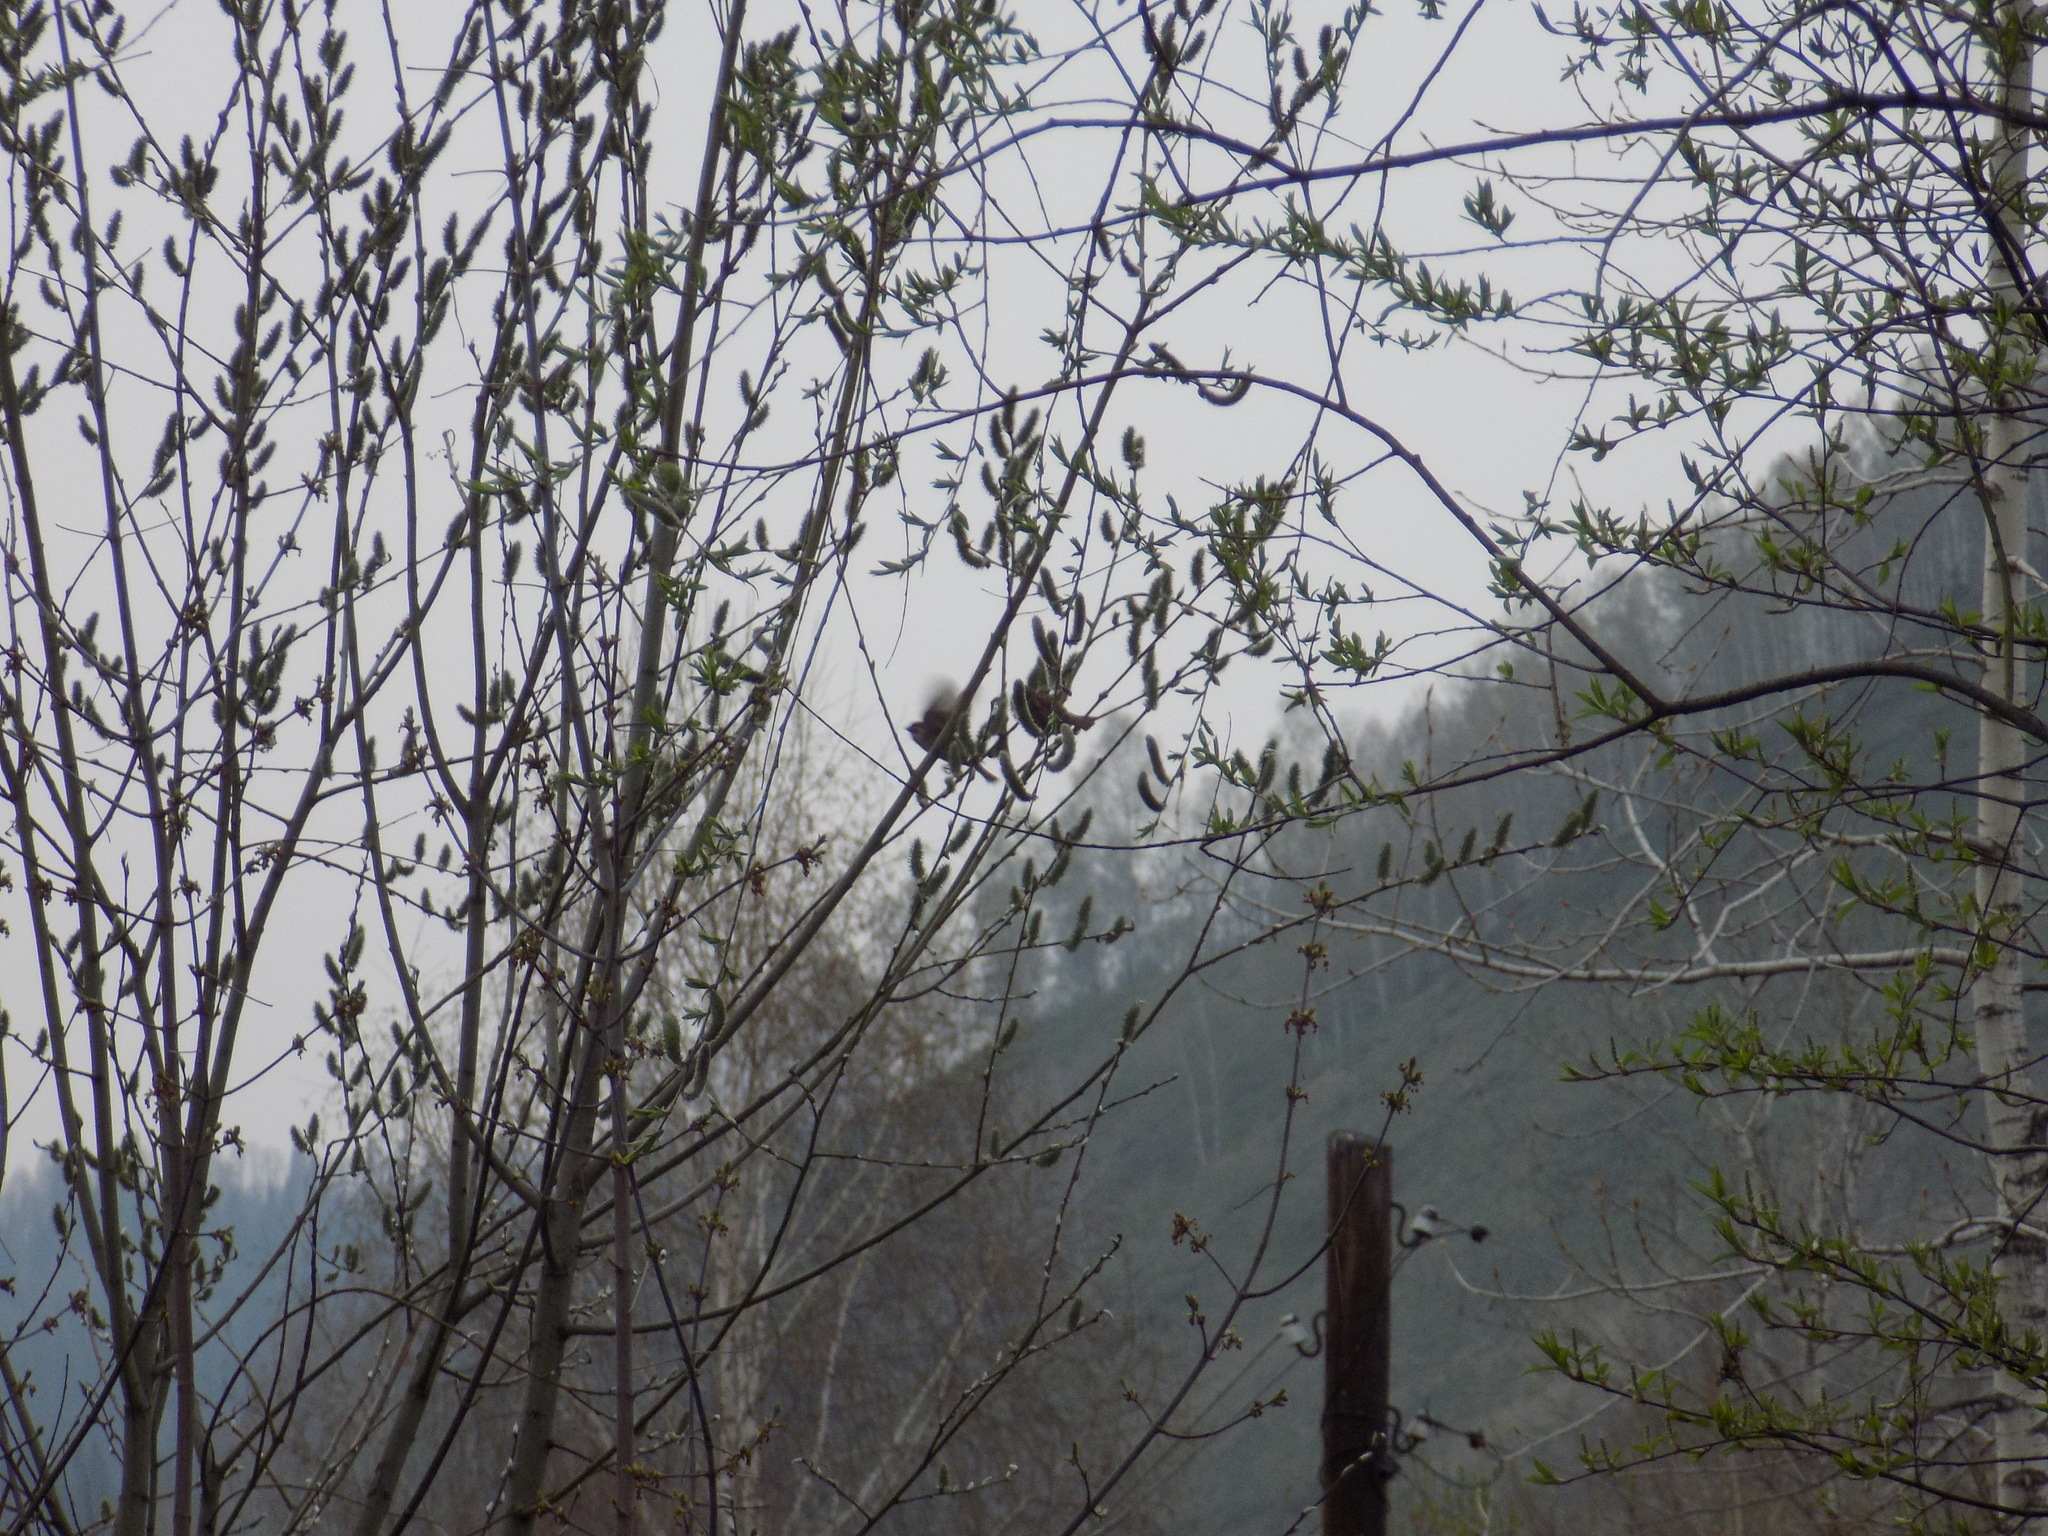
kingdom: Animalia
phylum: Chordata
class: Aves
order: Passeriformes
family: Passeridae
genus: Passer
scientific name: Passer montanus
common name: Eurasian tree sparrow
